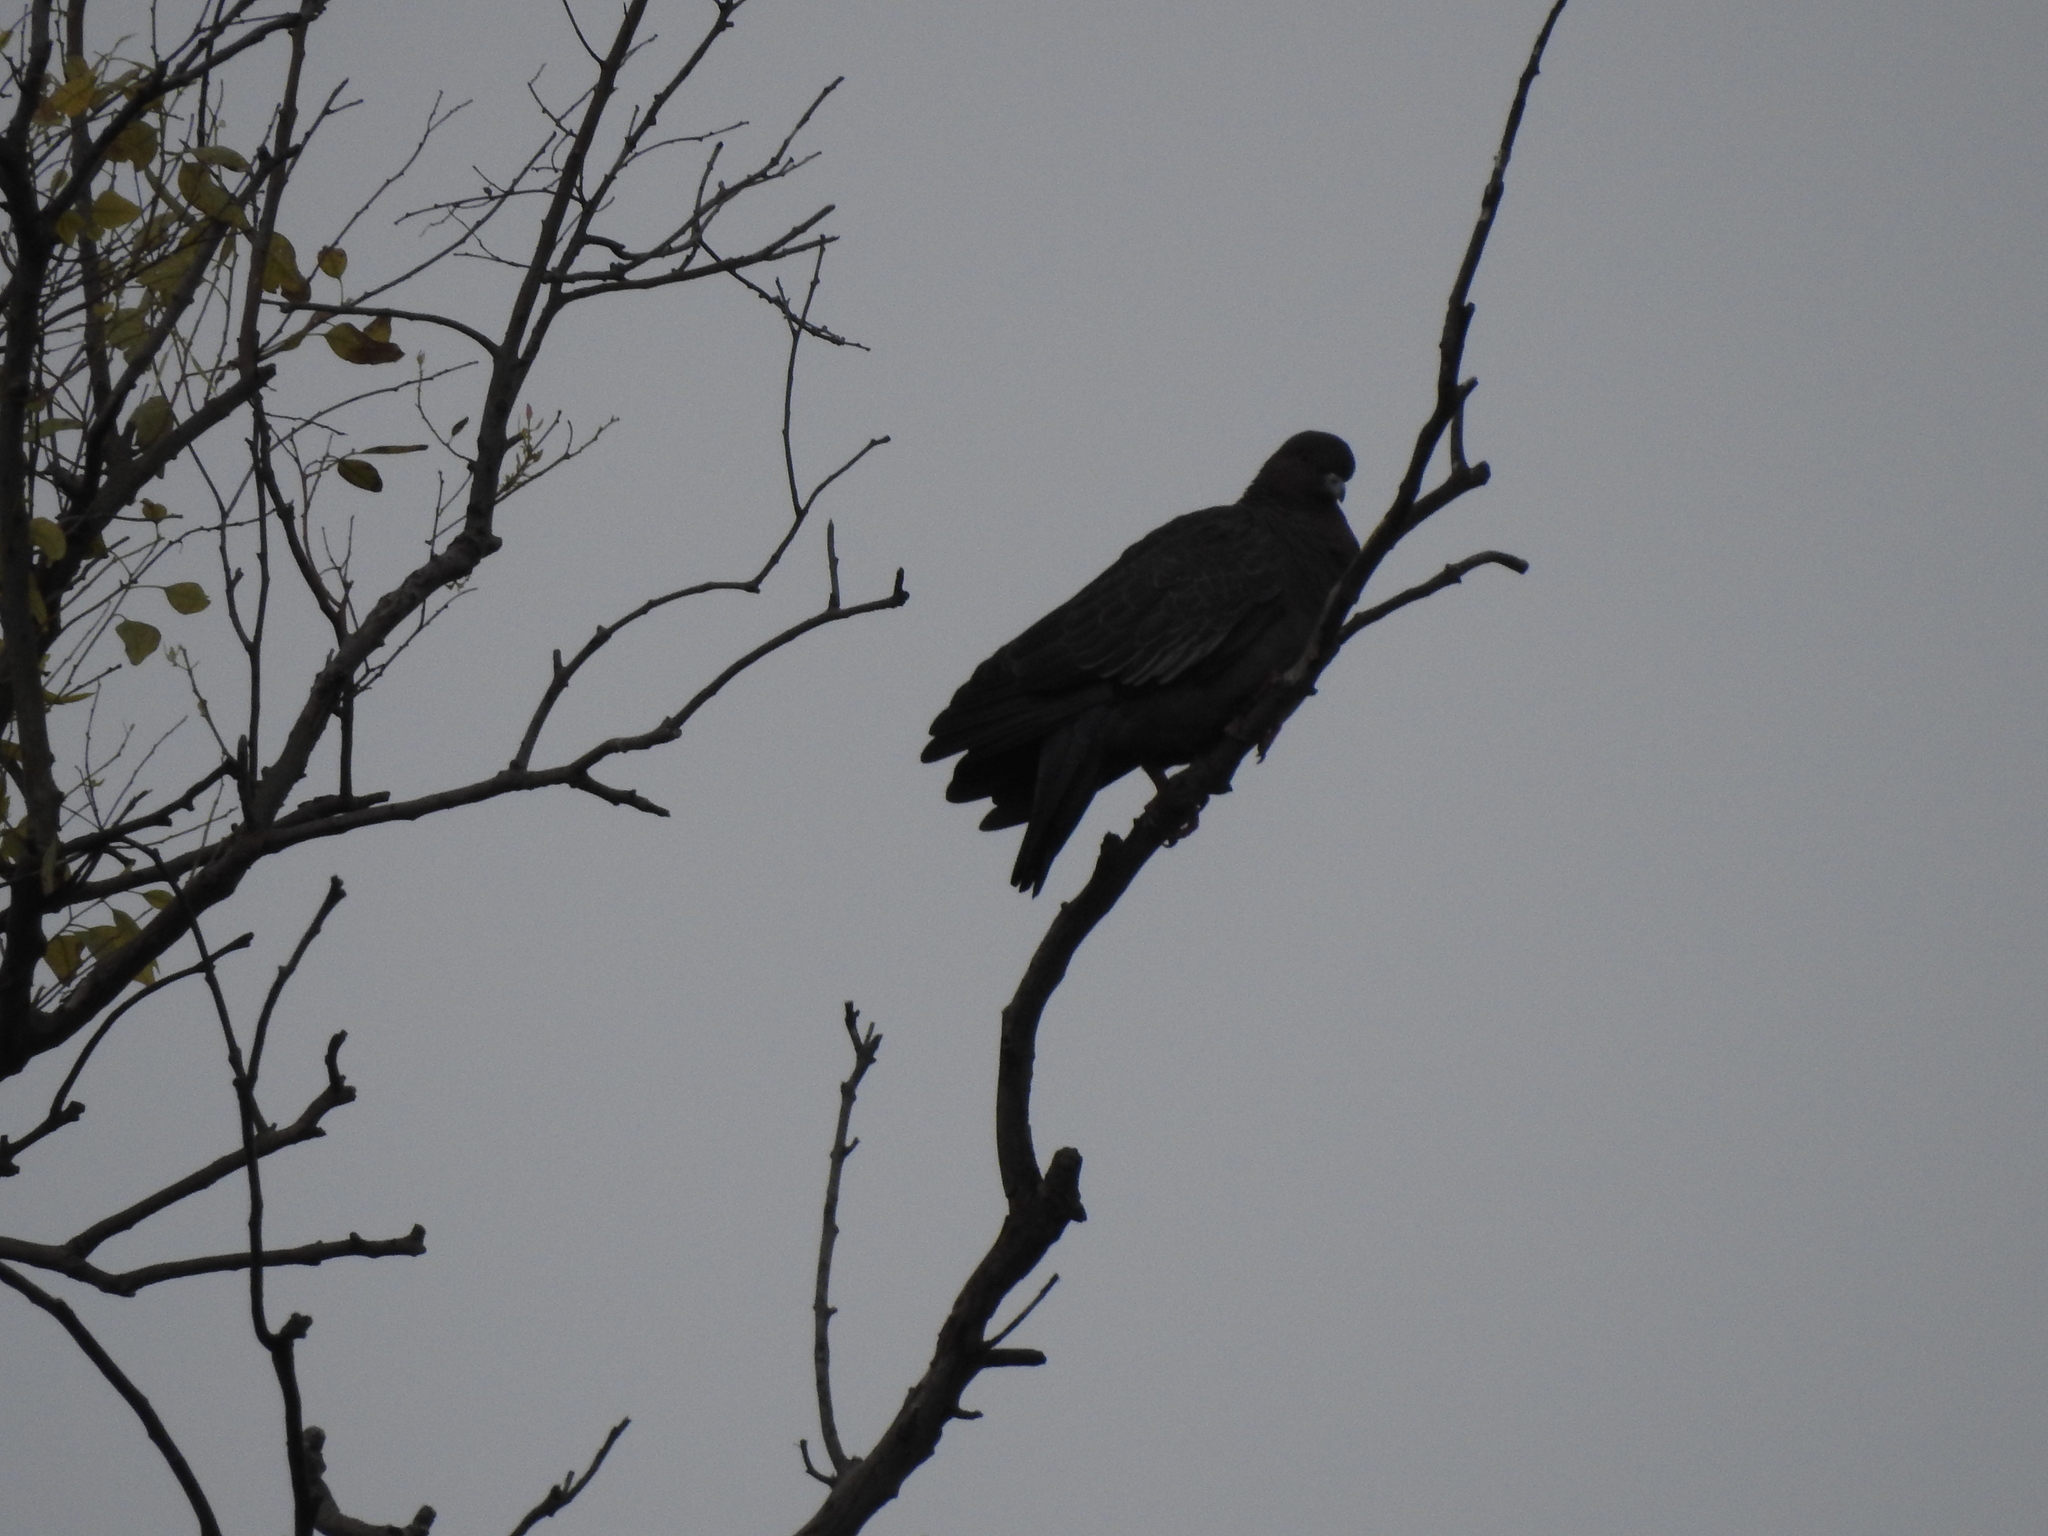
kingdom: Animalia
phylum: Chordata
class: Aves
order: Columbiformes
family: Columbidae
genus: Patagioenas
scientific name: Patagioenas picazuro
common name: Picazuro pigeon
